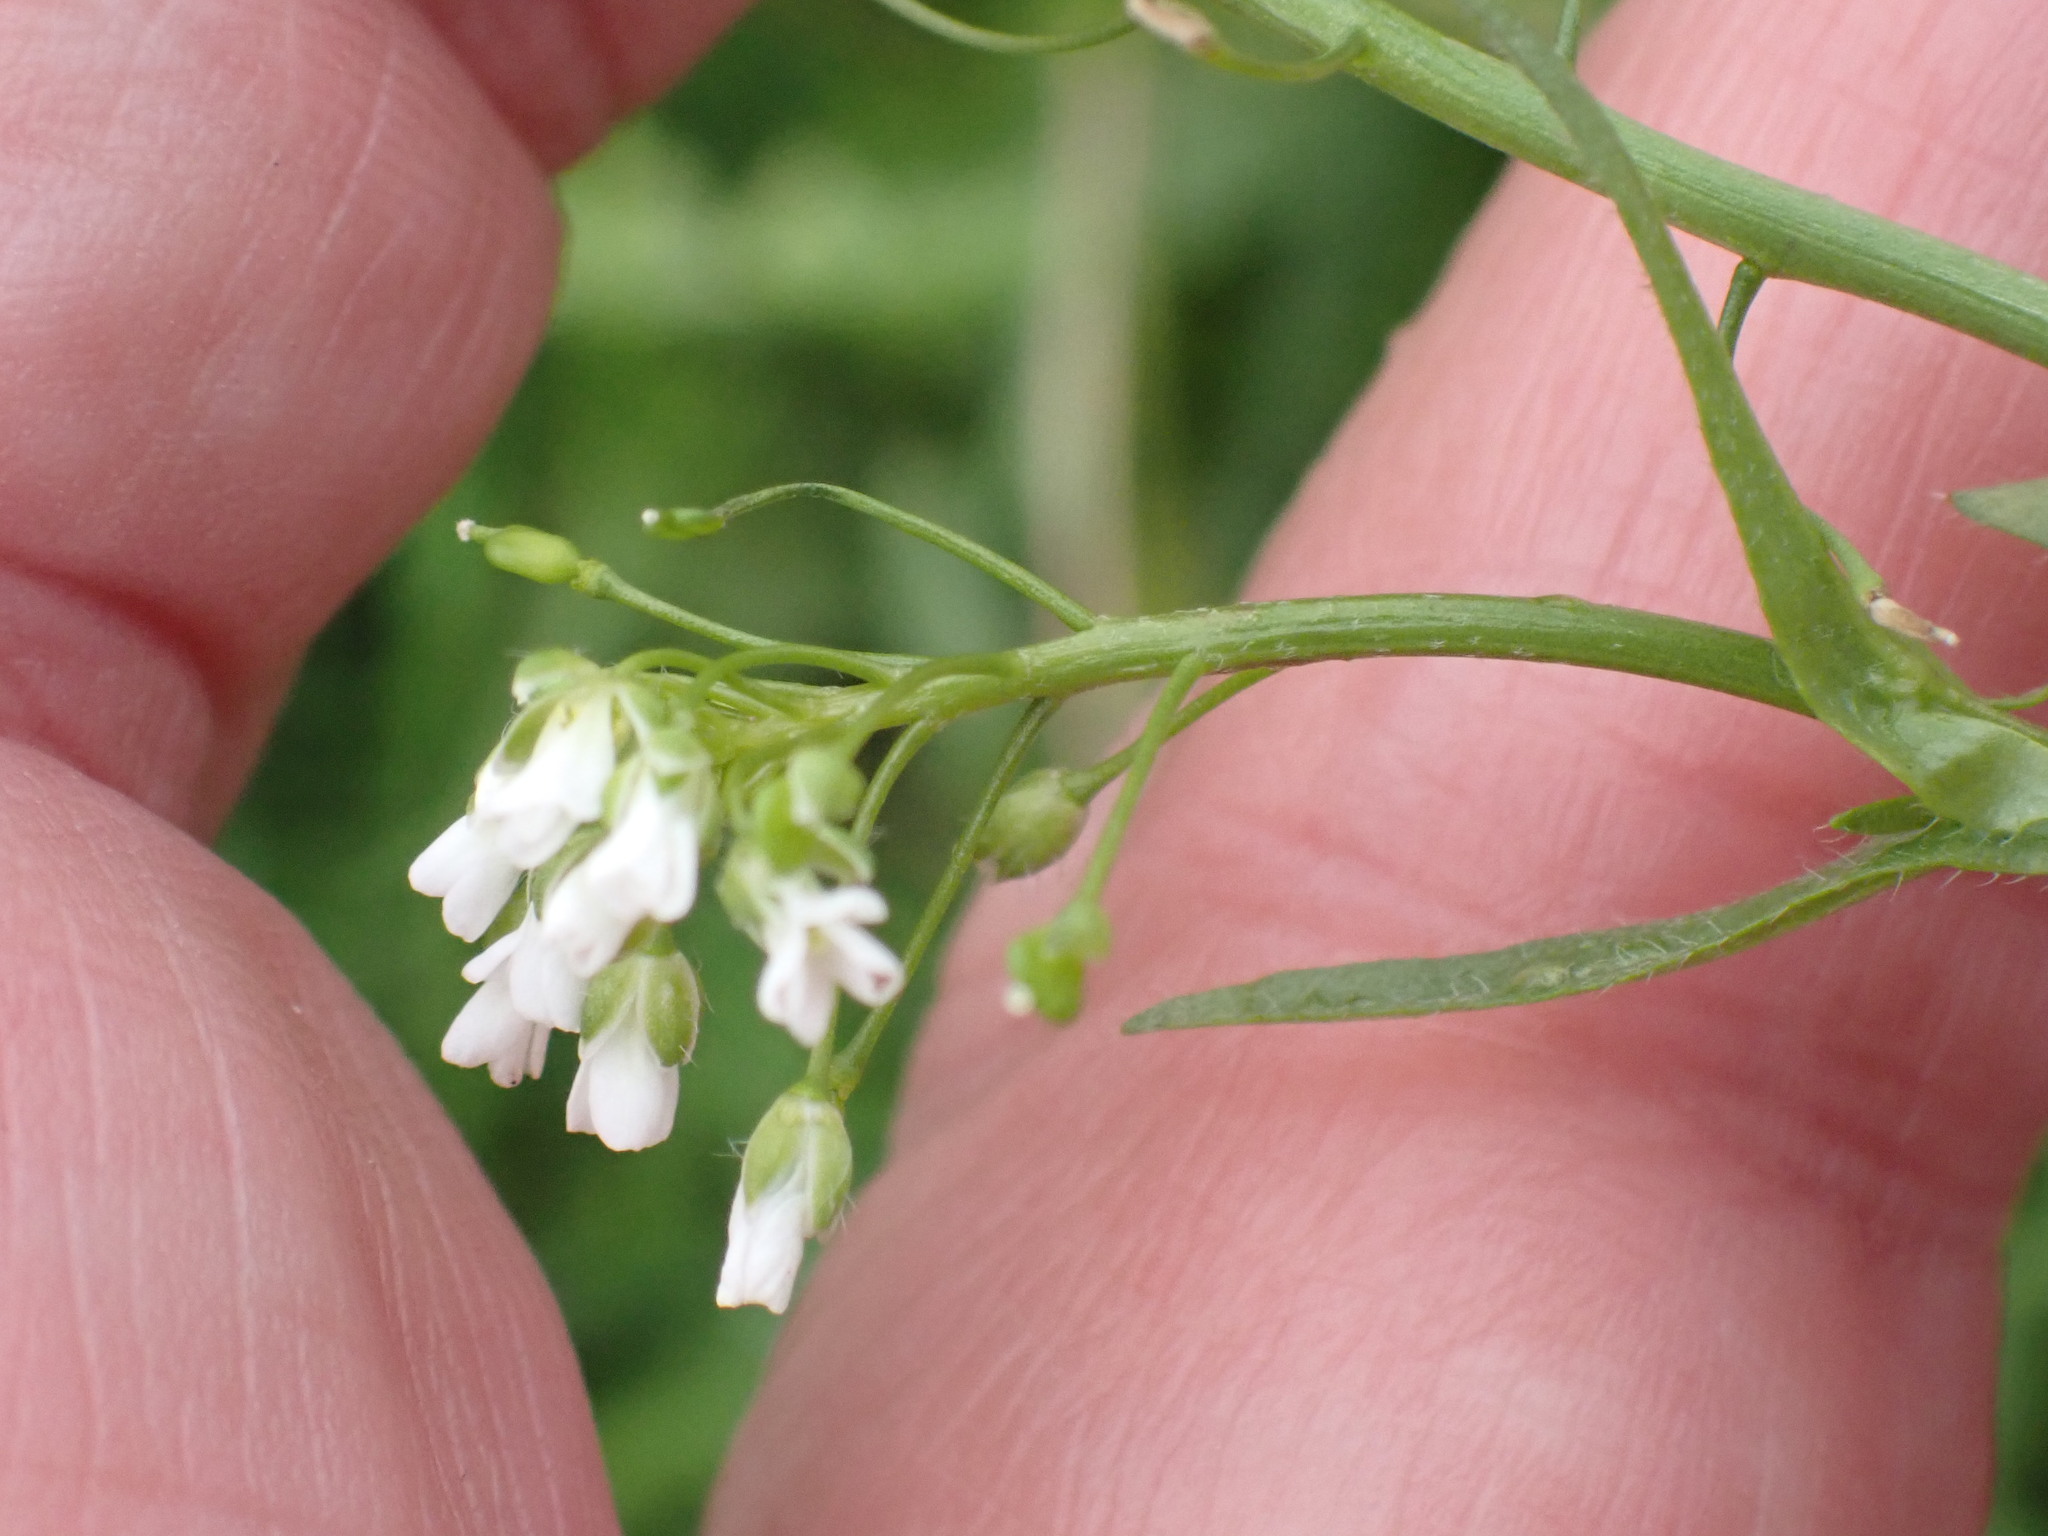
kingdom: Plantae
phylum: Tracheophyta
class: Magnoliopsida
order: Brassicales
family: Brassicaceae
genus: Capsella
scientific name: Capsella bursa-pastoris
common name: Shepherd's purse
